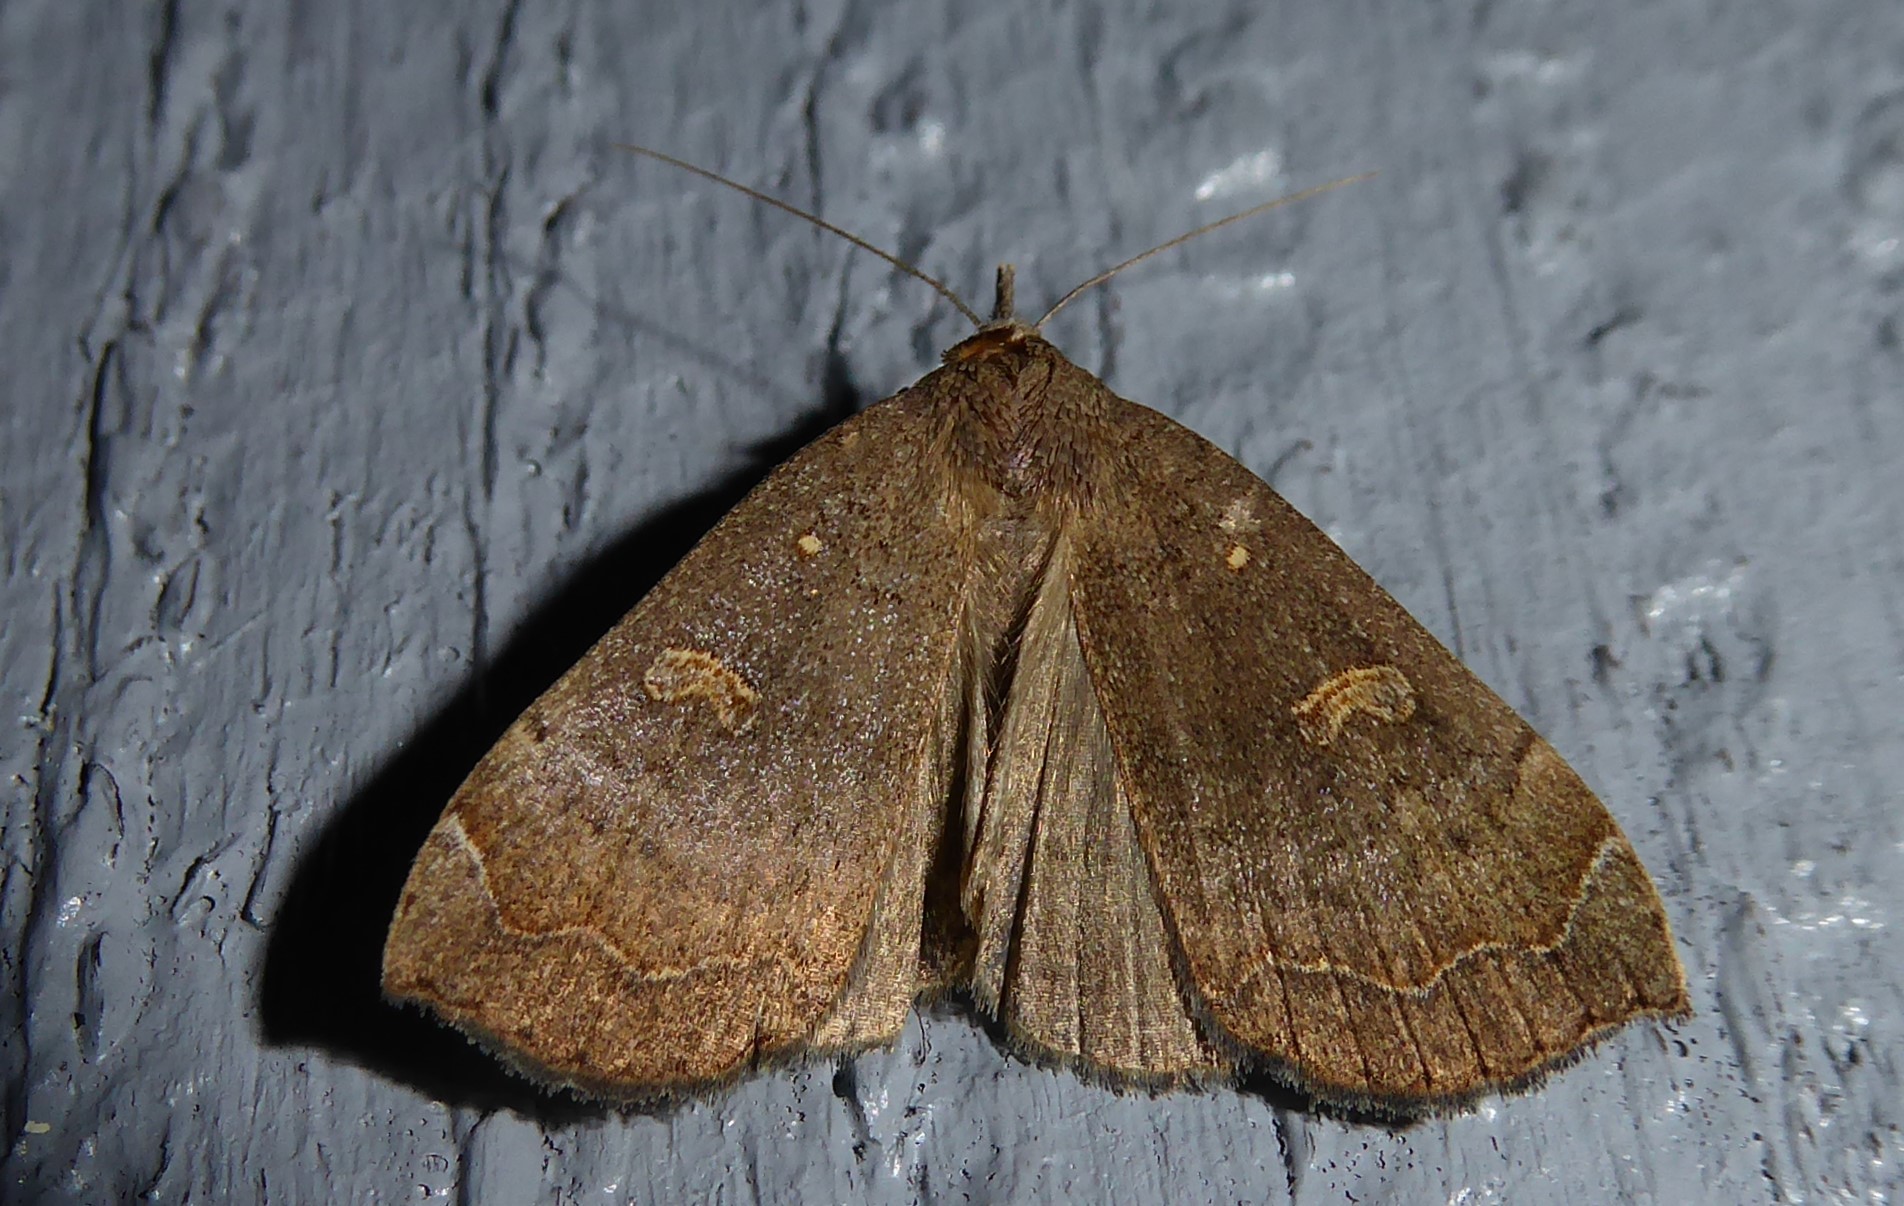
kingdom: Animalia
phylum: Arthropoda
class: Insecta
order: Lepidoptera
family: Erebidae
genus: Rhapsa
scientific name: Rhapsa scotosialis
